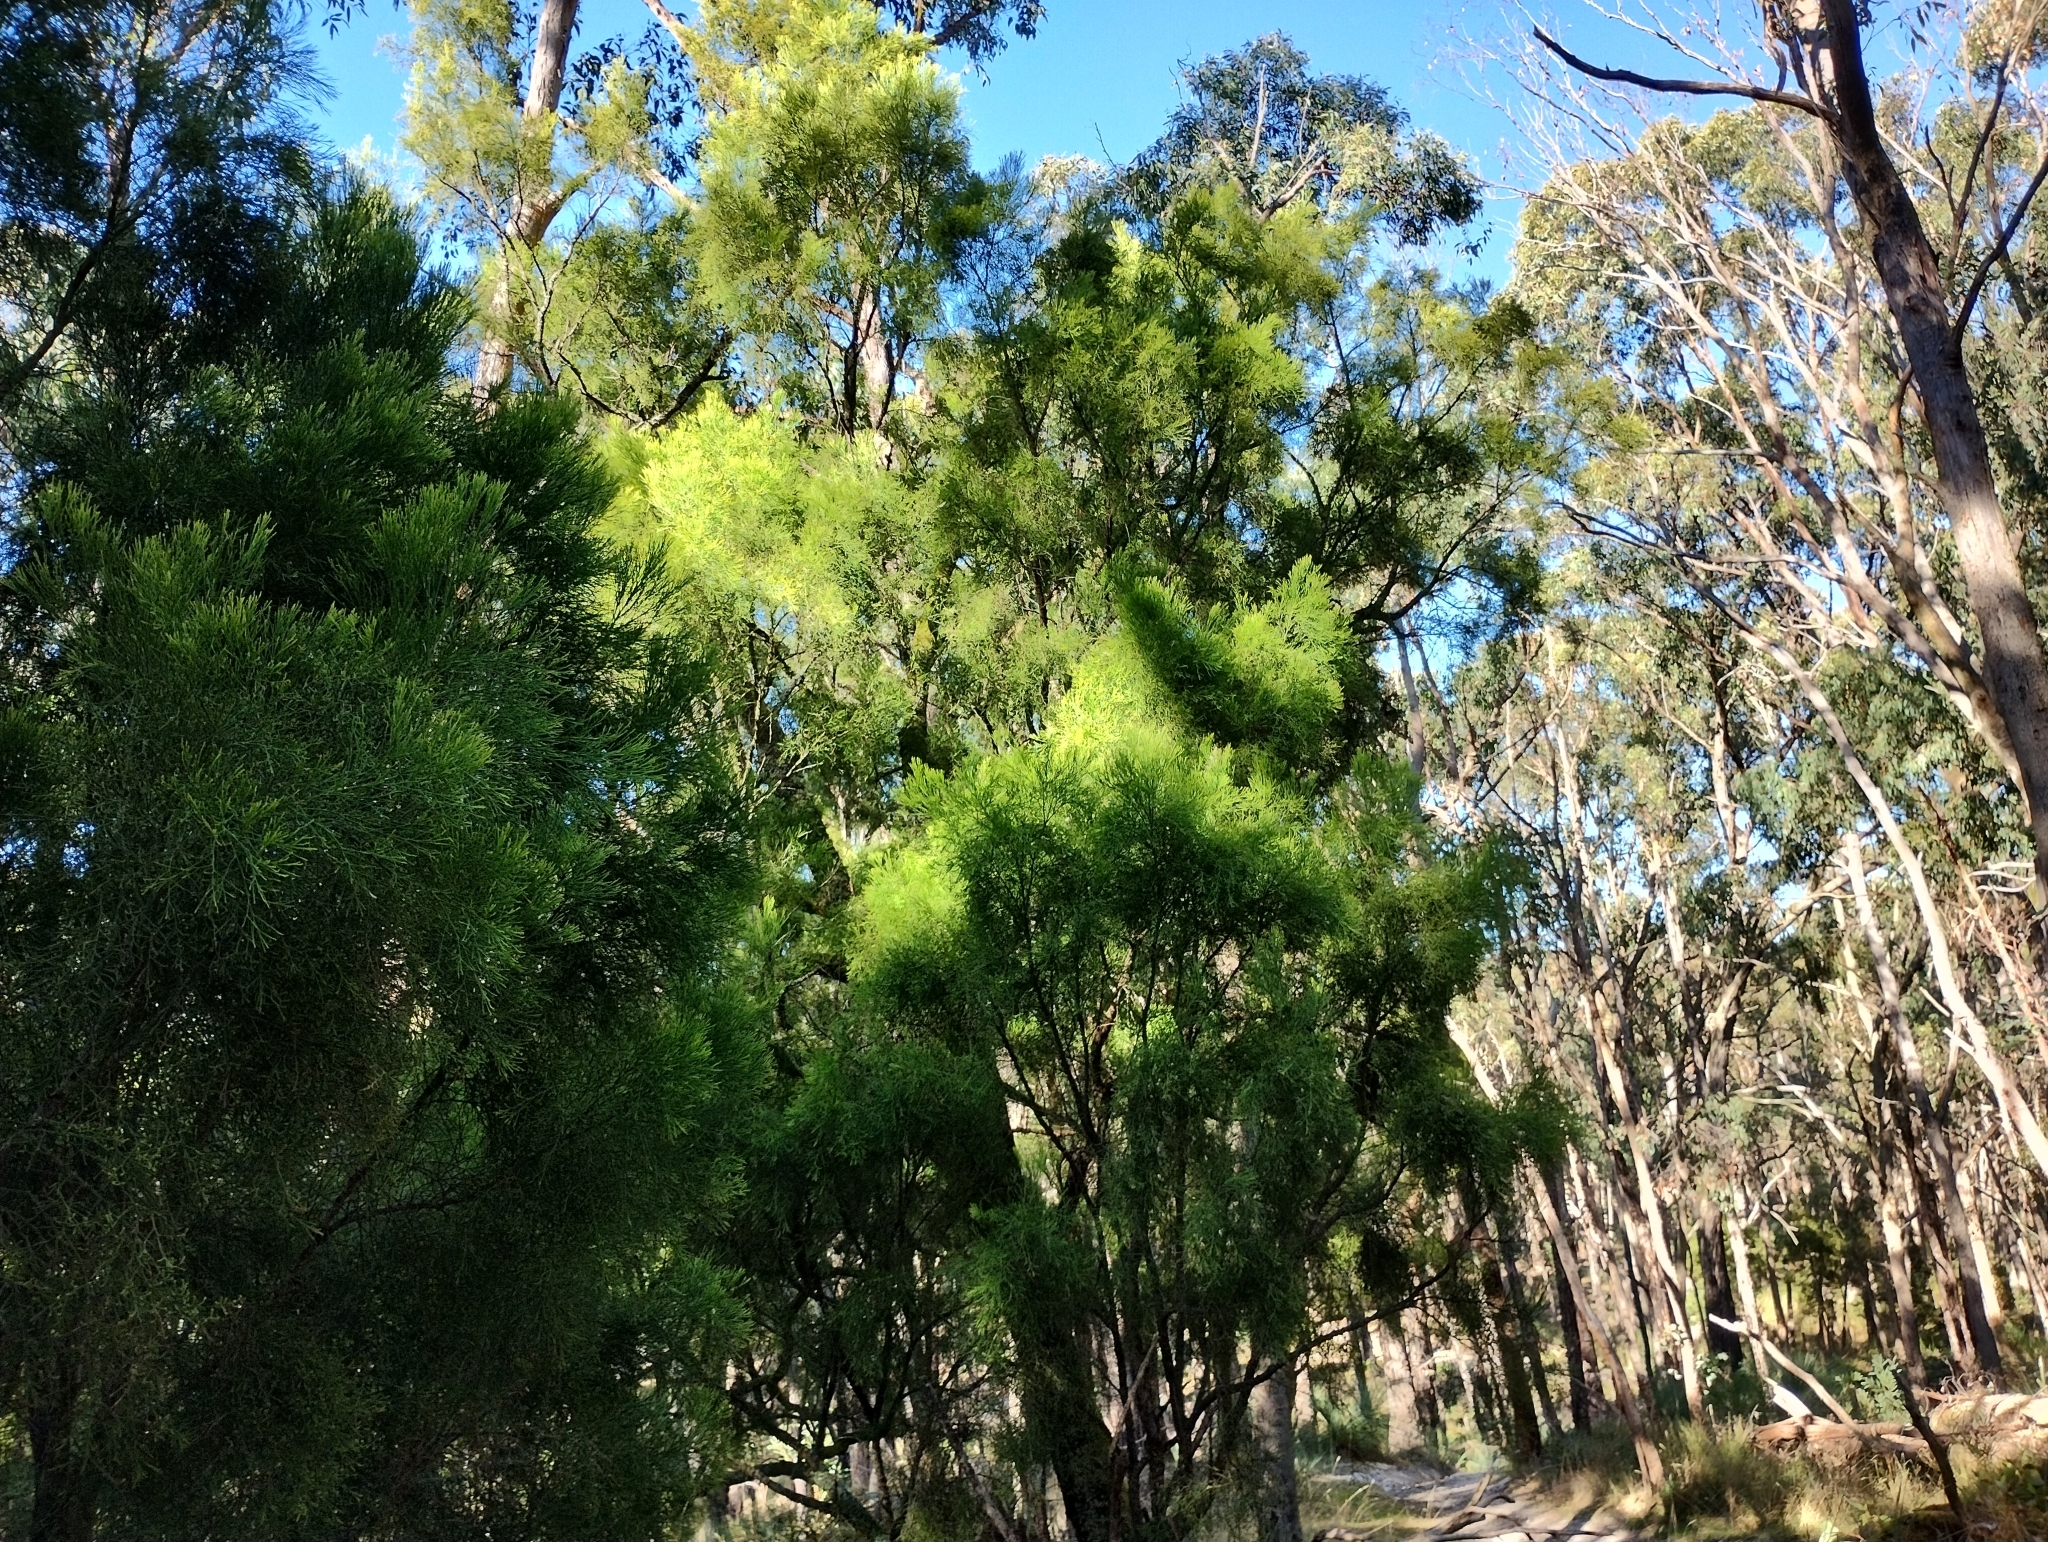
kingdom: Plantae
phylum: Tracheophyta
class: Magnoliopsida
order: Santalales
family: Santalaceae
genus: Exocarpos
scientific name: Exocarpos cupressiformis
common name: Cherry ballart
